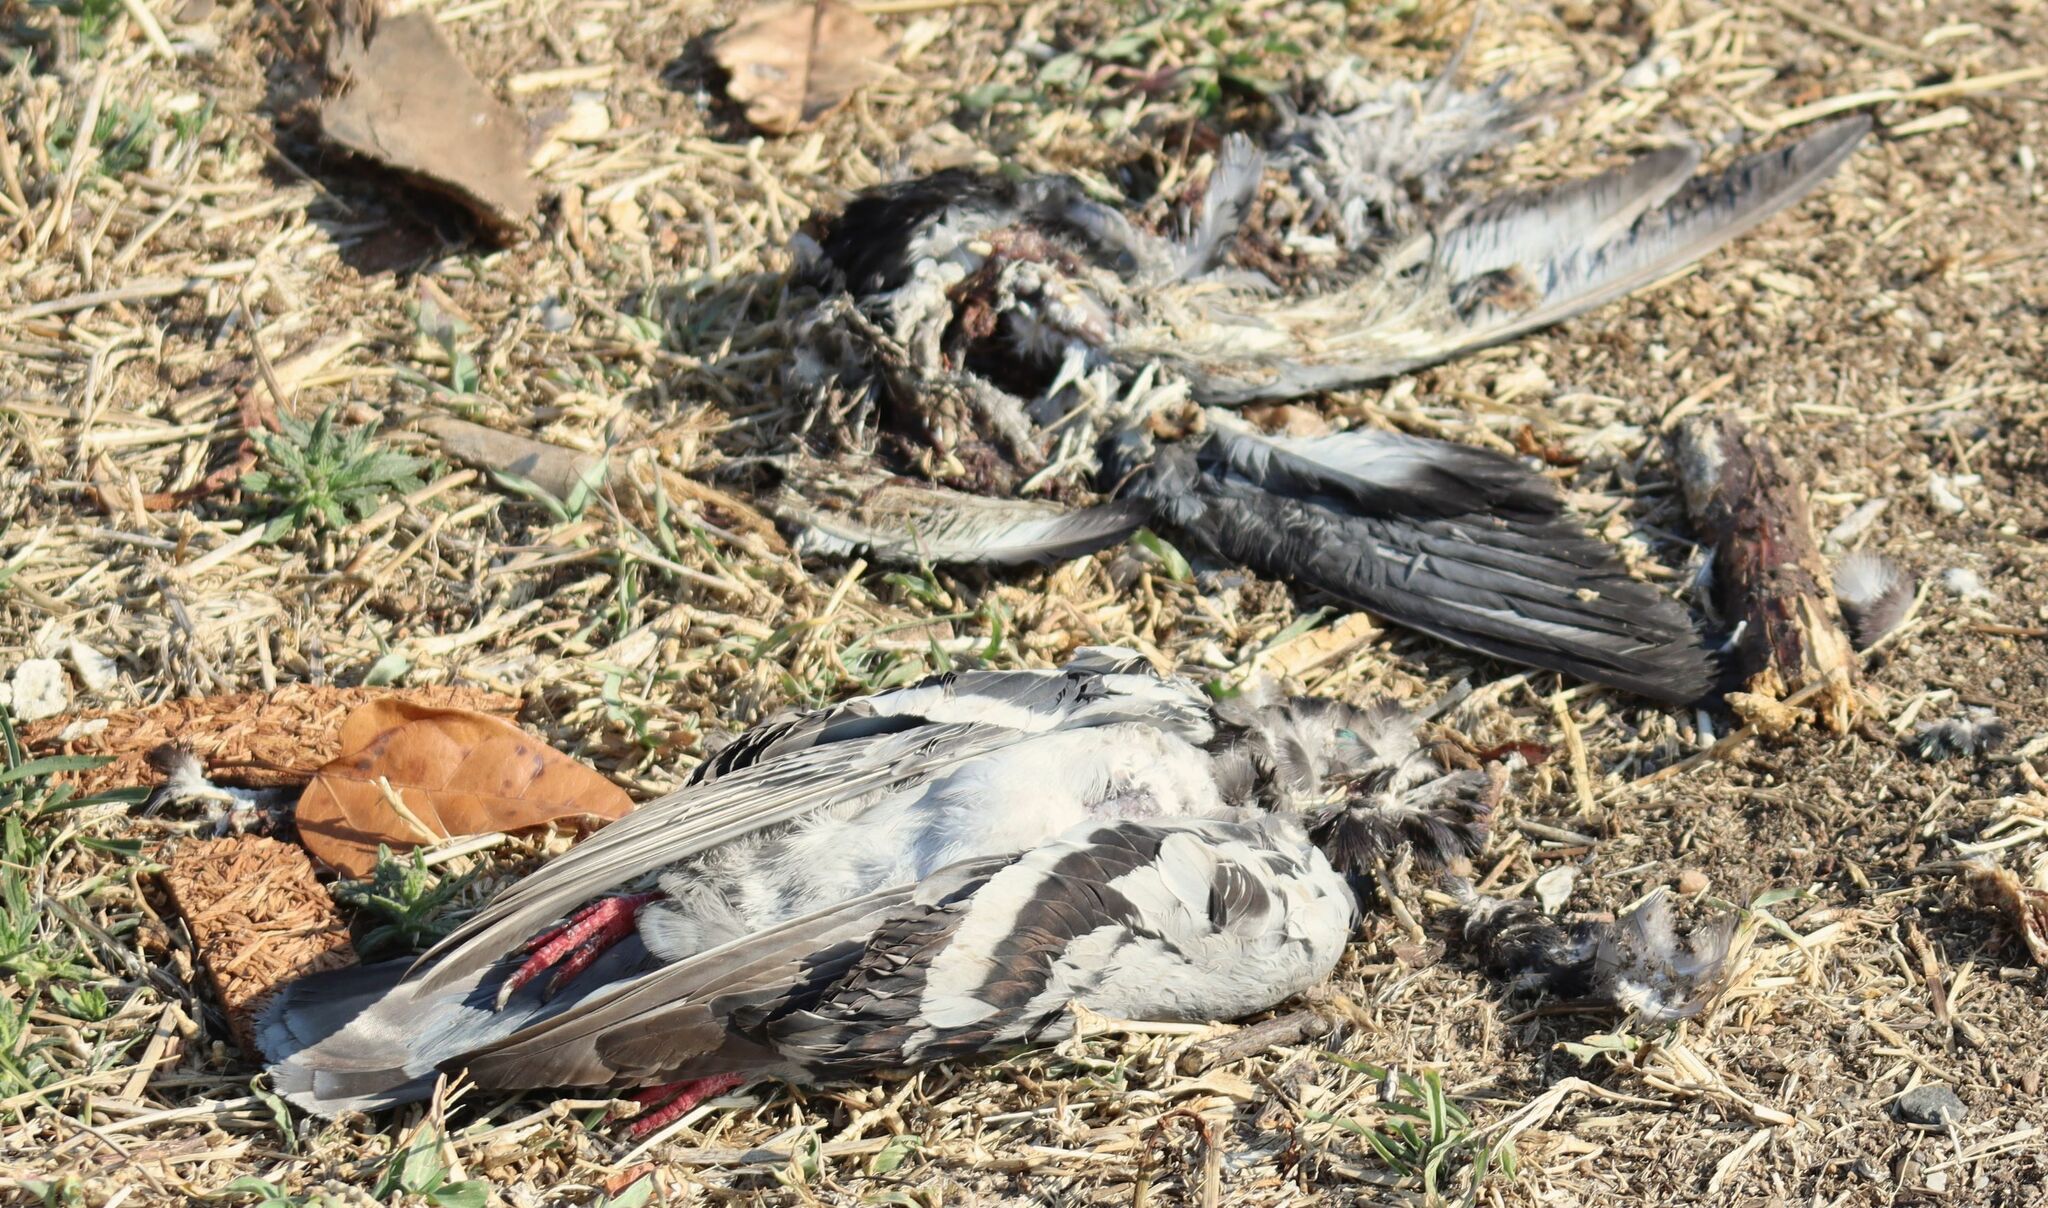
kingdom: Animalia
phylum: Chordata
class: Aves
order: Columbiformes
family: Columbidae
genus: Columba
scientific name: Columba livia
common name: Rock pigeon
